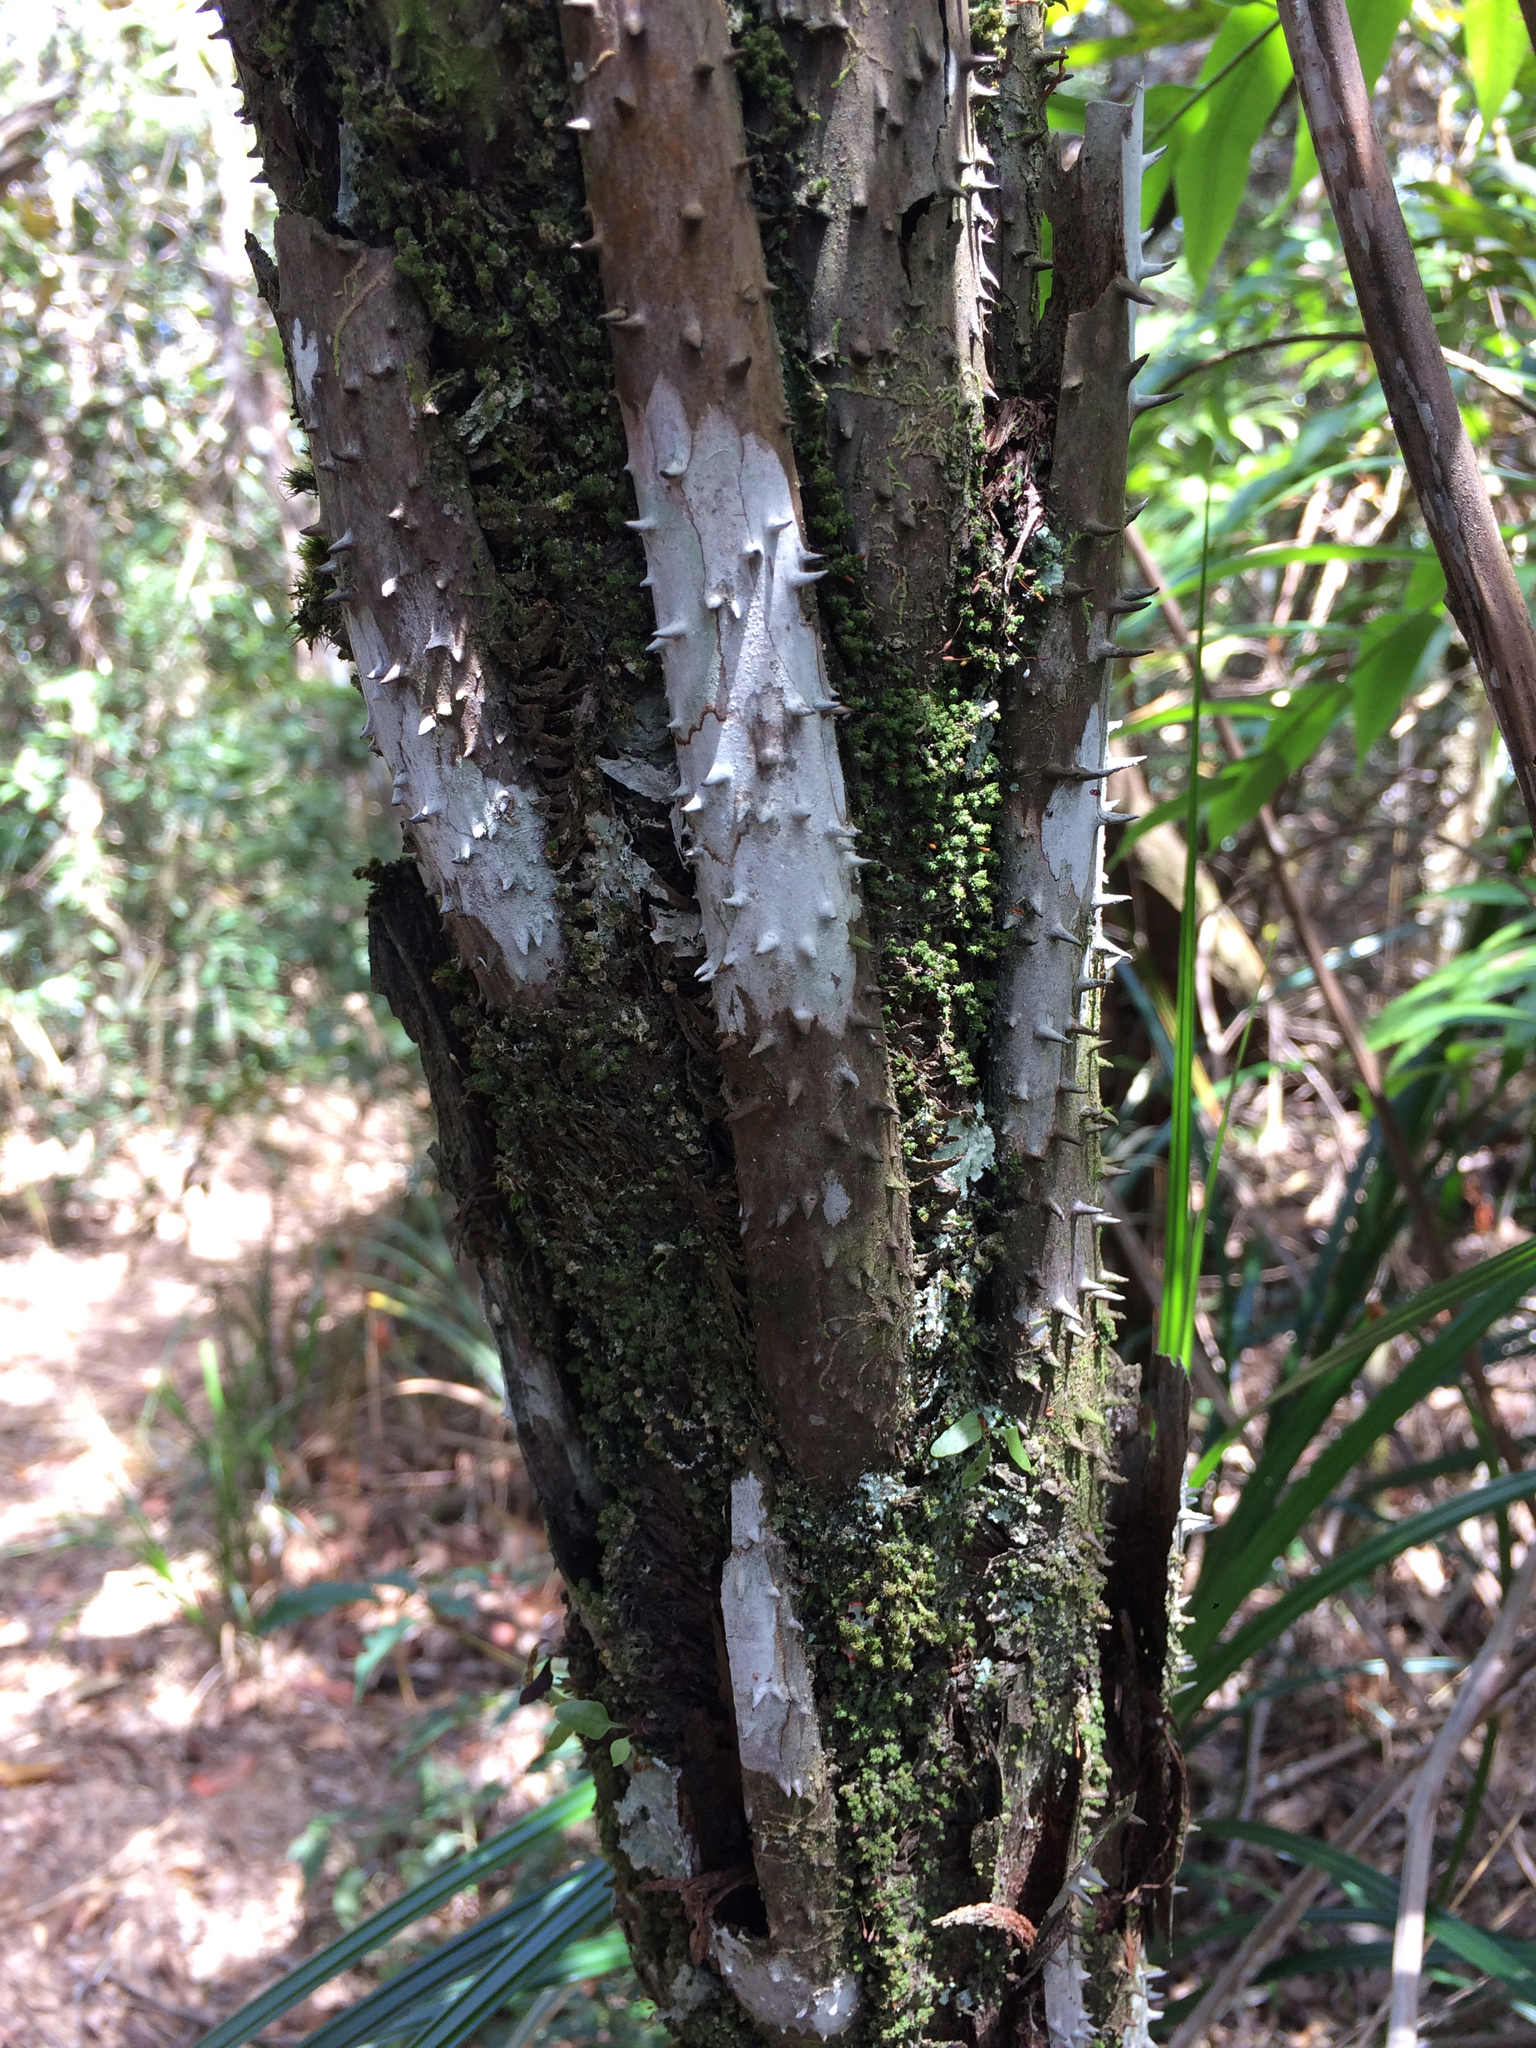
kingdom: Plantae
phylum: Tracheophyta
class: Polypodiopsida
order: Cyatheales
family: Cyatheaceae
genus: Cyathea
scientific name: Cyathea corcovadensis
